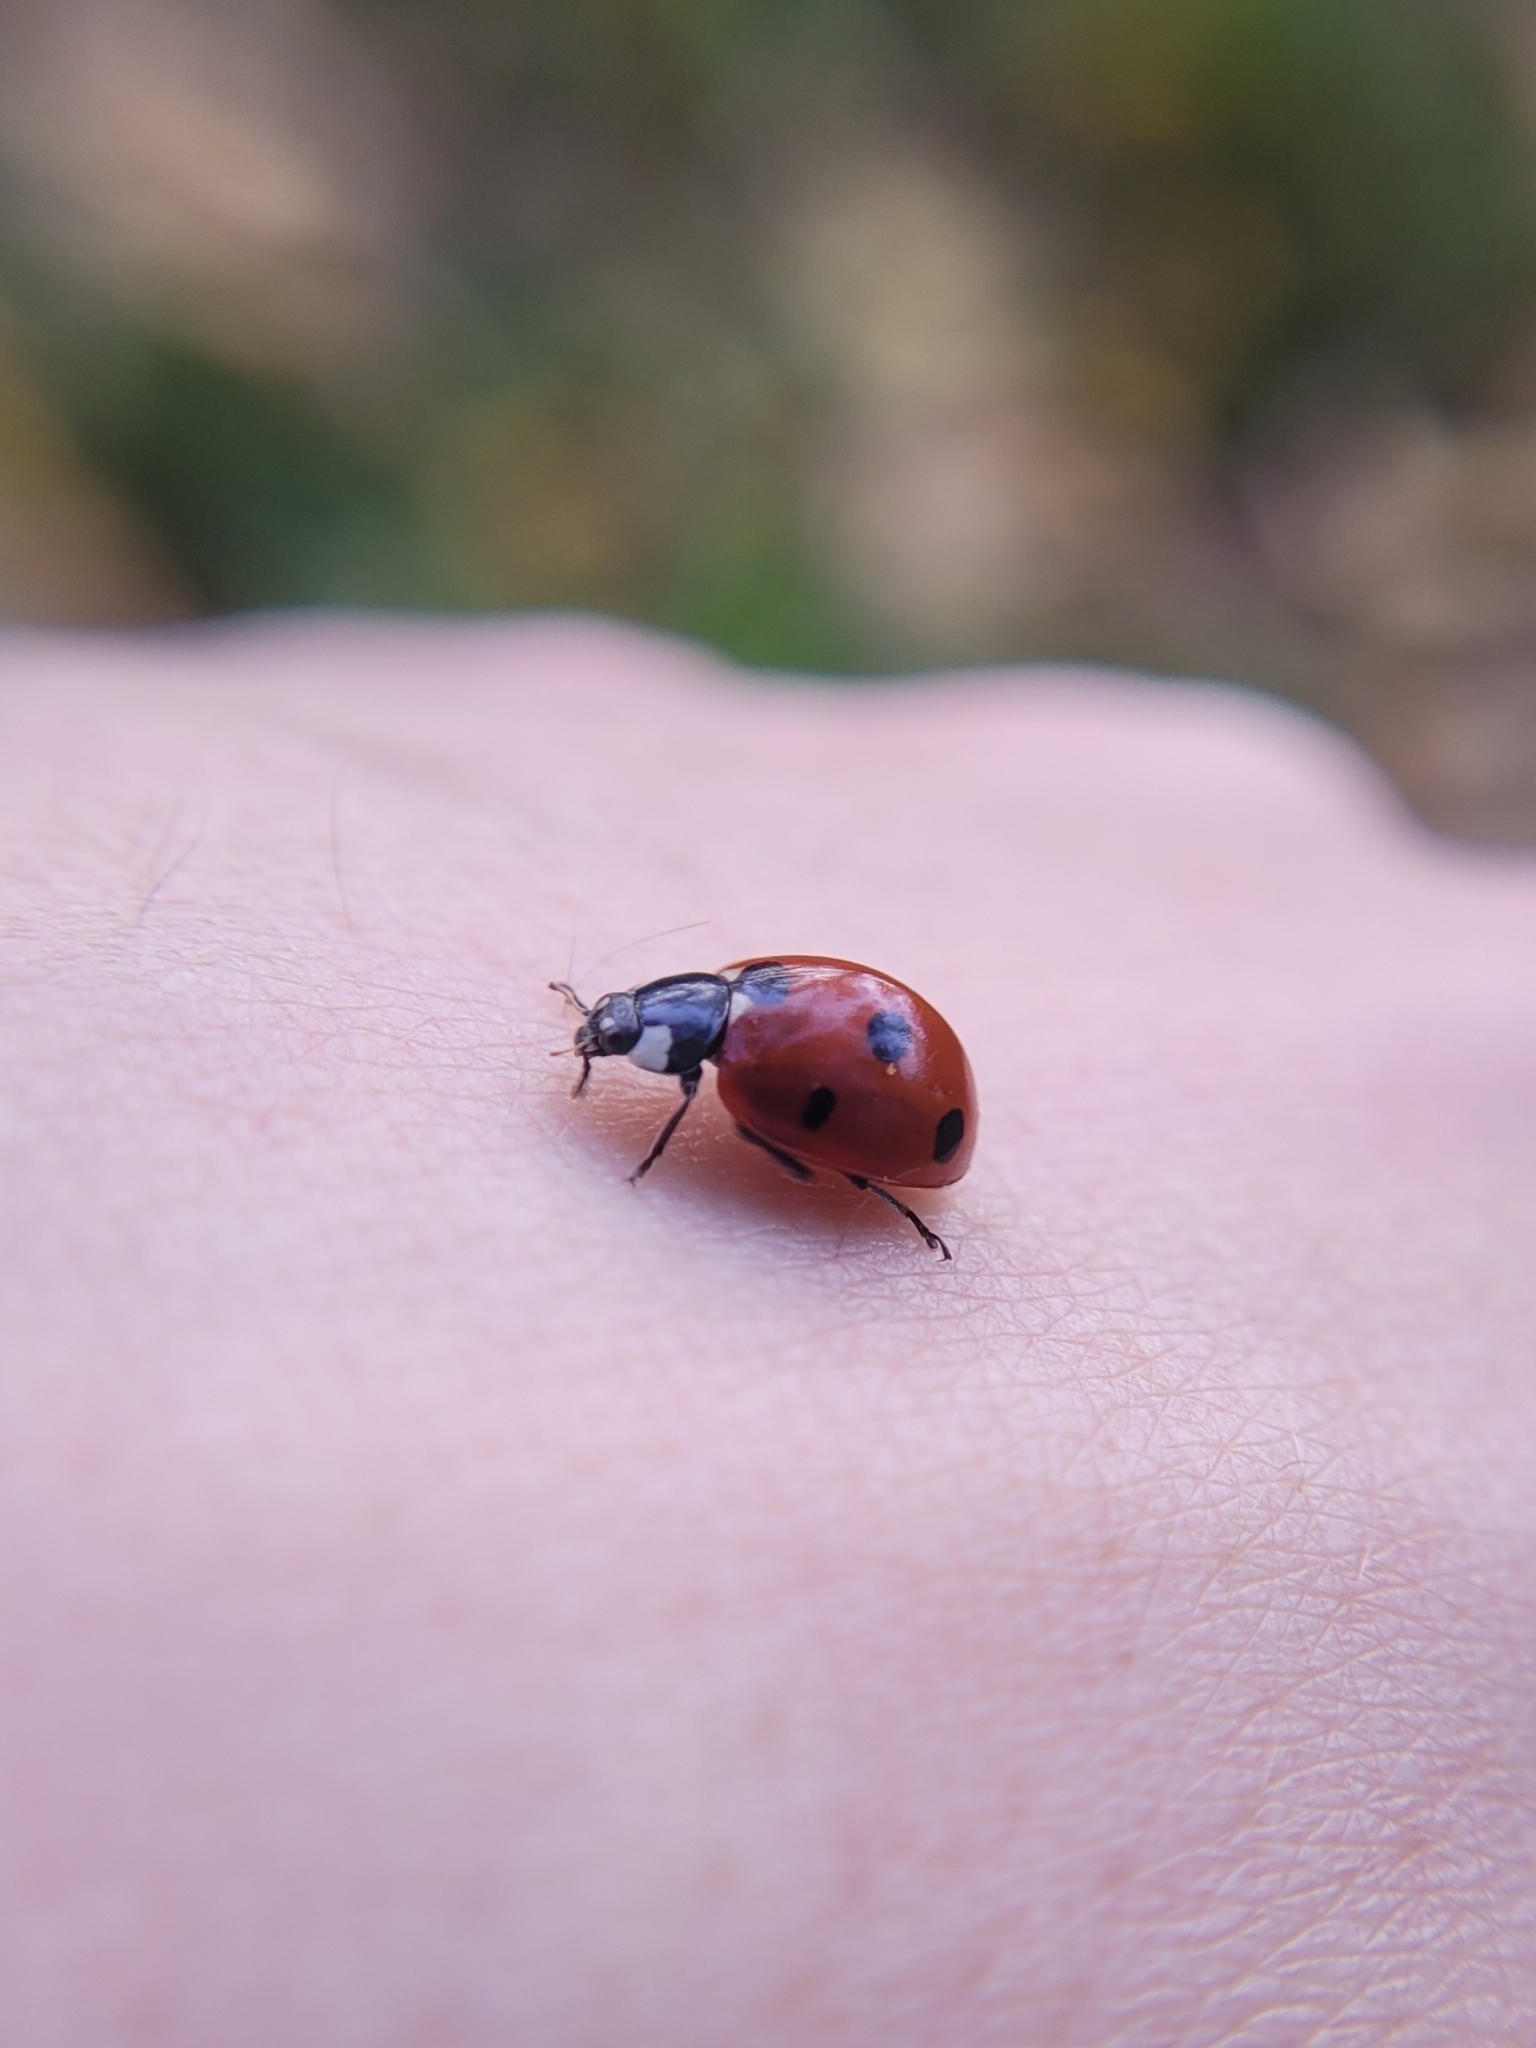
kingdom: Animalia
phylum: Arthropoda
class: Insecta
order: Coleoptera
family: Coccinellidae
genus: Coccinella
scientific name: Coccinella septempunctata
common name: Sevenspotted lady beetle
